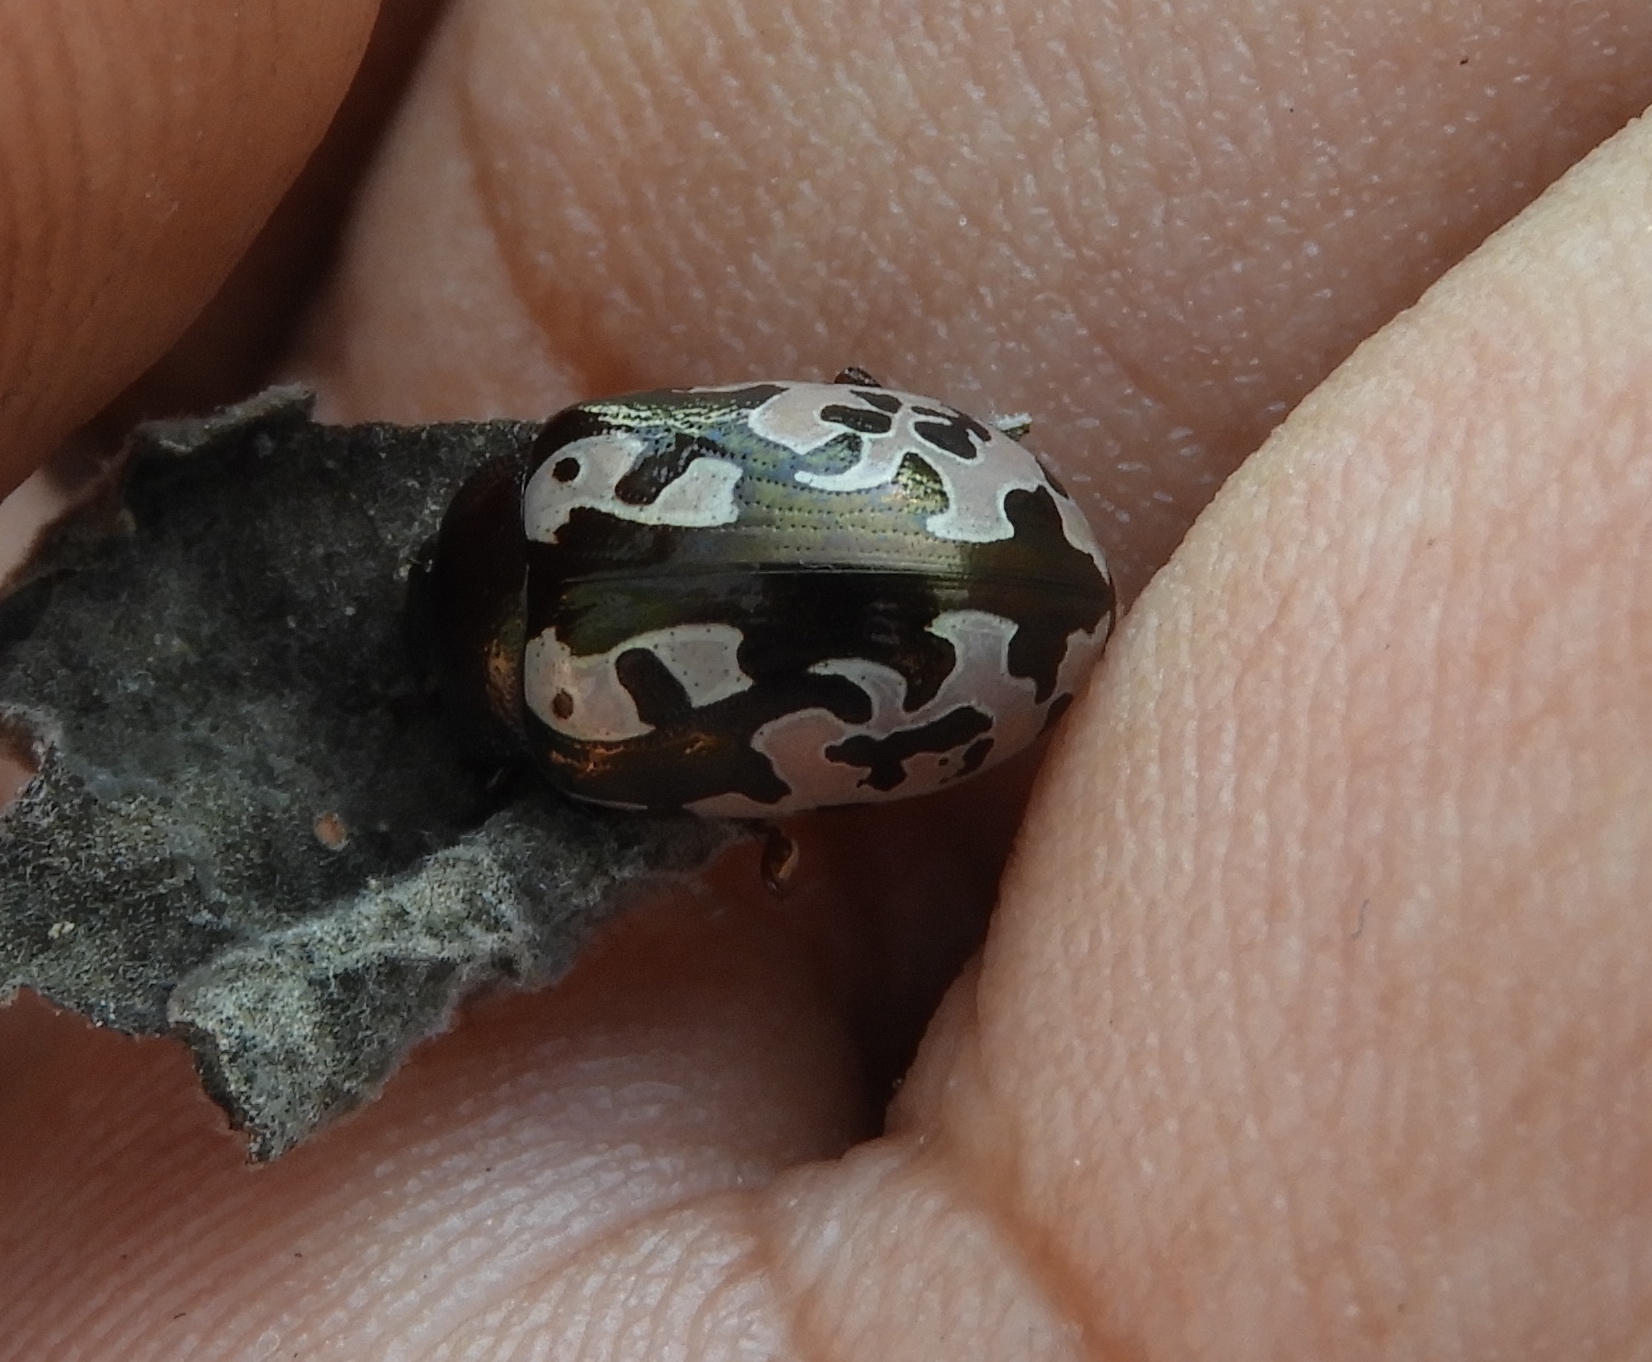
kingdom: Animalia
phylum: Arthropoda
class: Insecta
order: Coleoptera
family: Chrysomelidae
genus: Calligrapha
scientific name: Calligrapha intermedia
